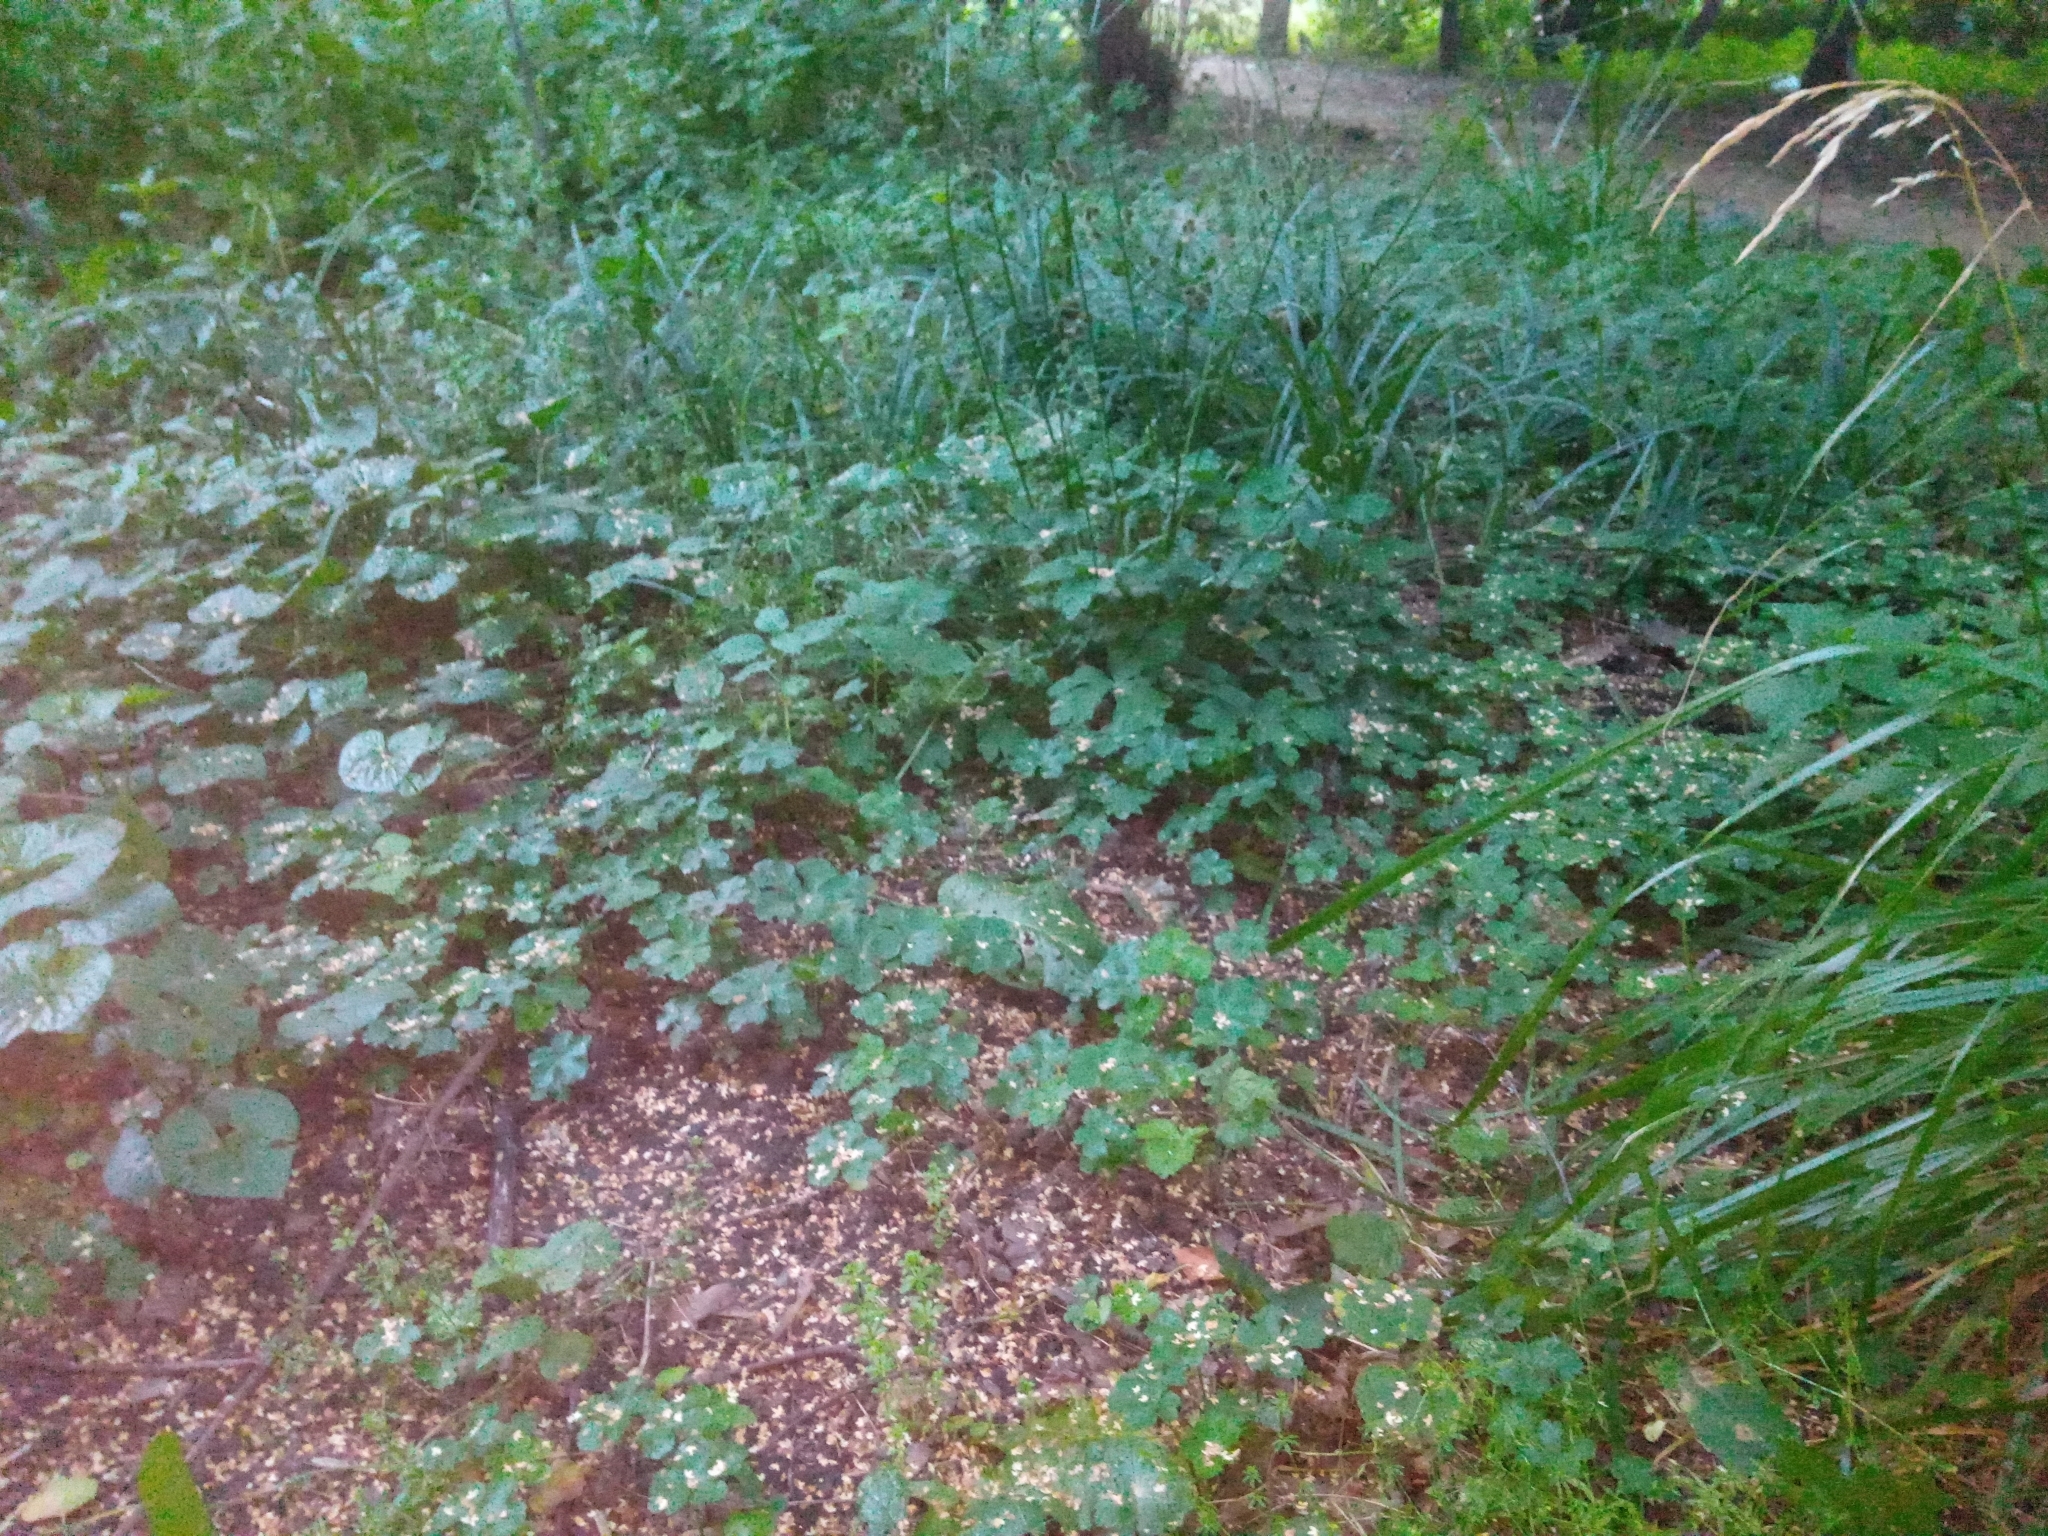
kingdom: Plantae
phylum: Tracheophyta
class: Magnoliopsida
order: Apiales
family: Apiaceae
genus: Sanicula
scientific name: Sanicula europaea
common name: Sanicle
